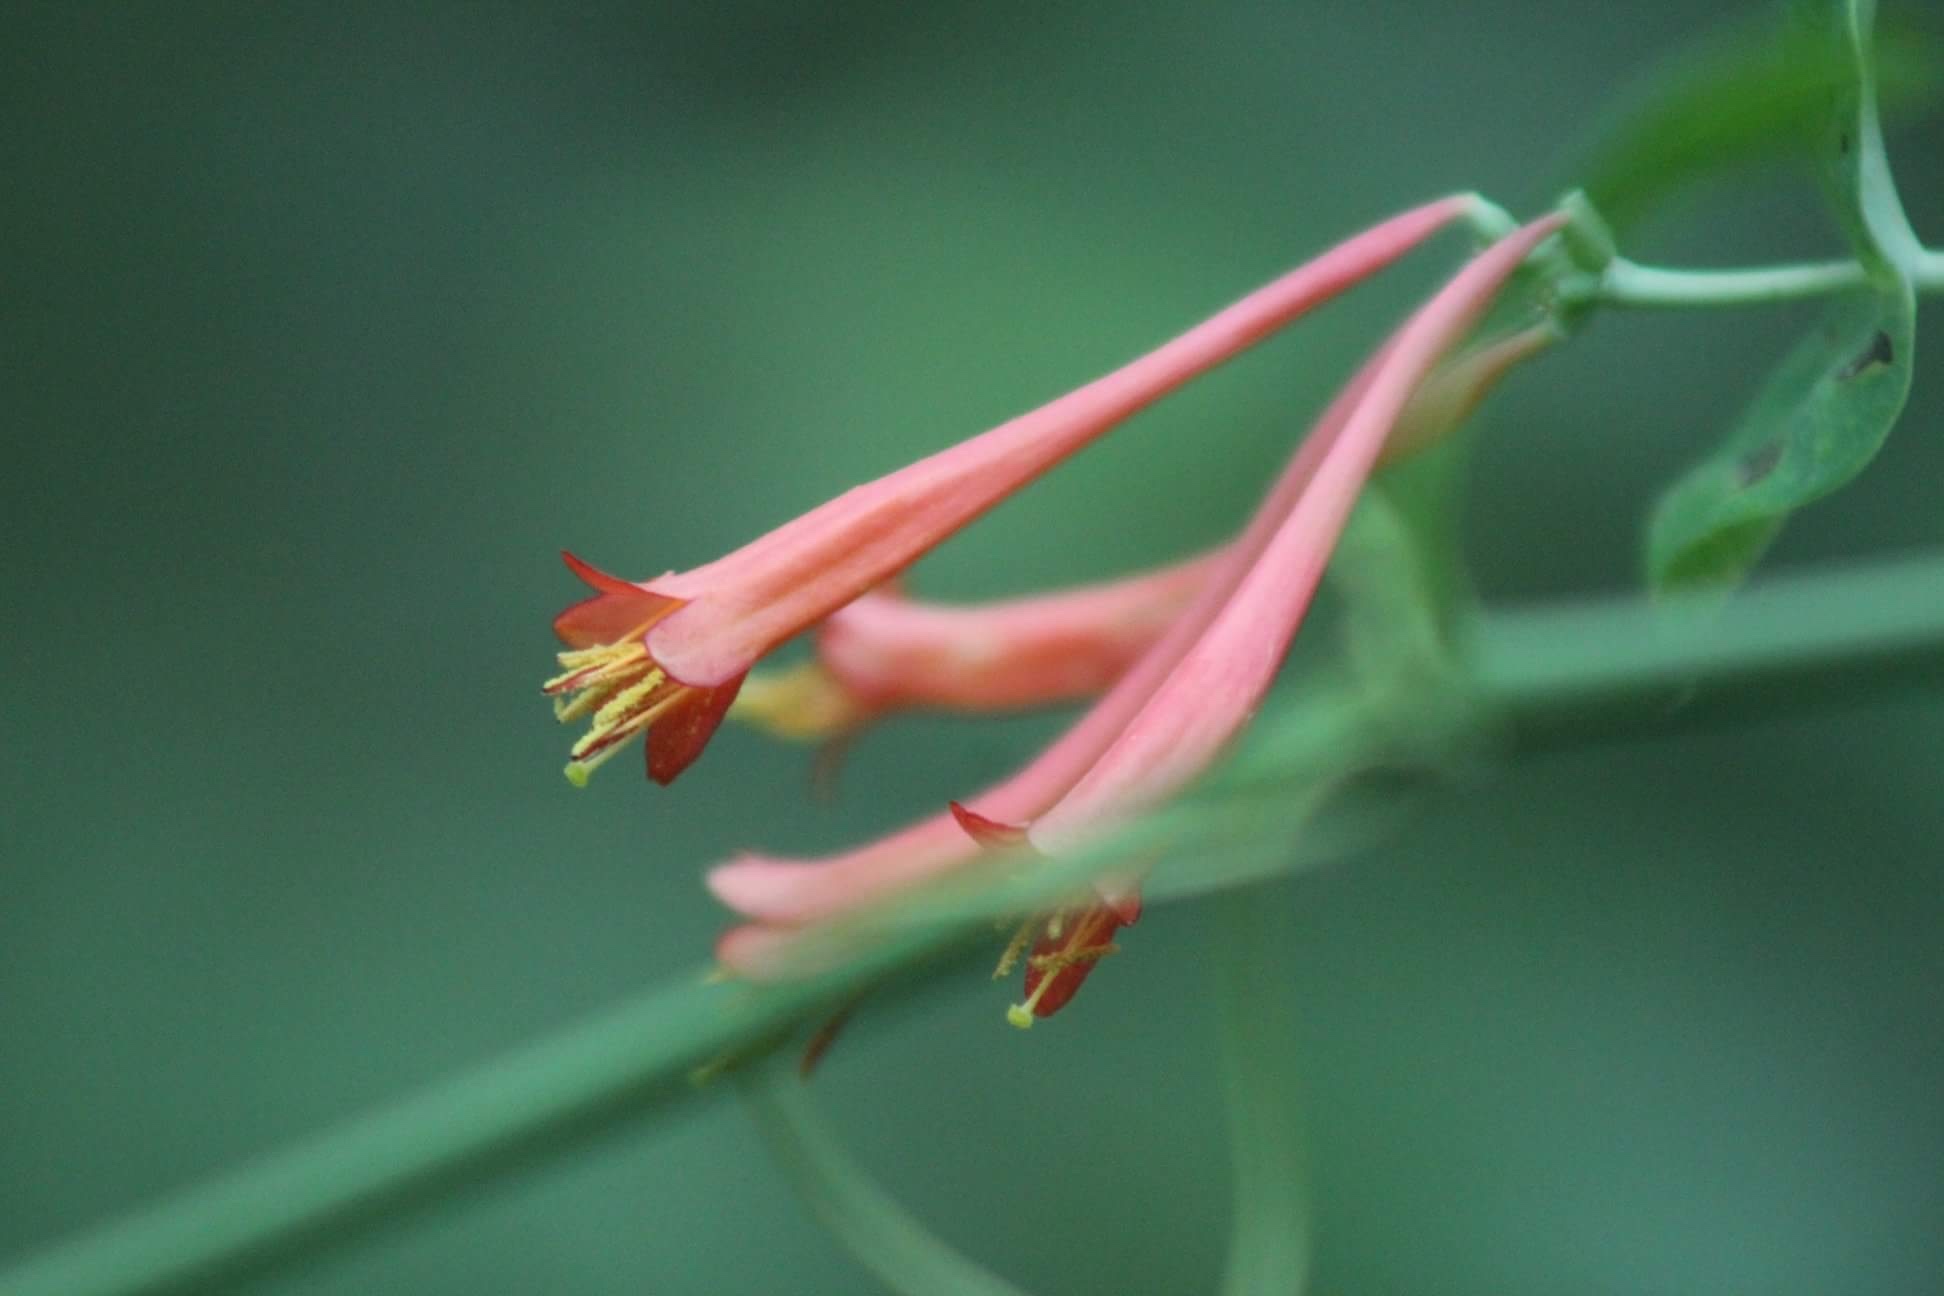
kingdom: Plantae
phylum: Tracheophyta
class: Magnoliopsida
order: Dipsacales
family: Caprifoliaceae
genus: Lonicera
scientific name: Lonicera sempervirens
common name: Coral honeysuckle
